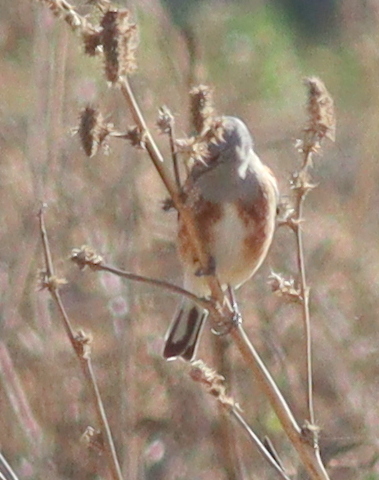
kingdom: Animalia
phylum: Chordata
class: Aves
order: Passeriformes
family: Fringillidae
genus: Linaria
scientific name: Linaria yemenensis
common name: Yemen linnet
